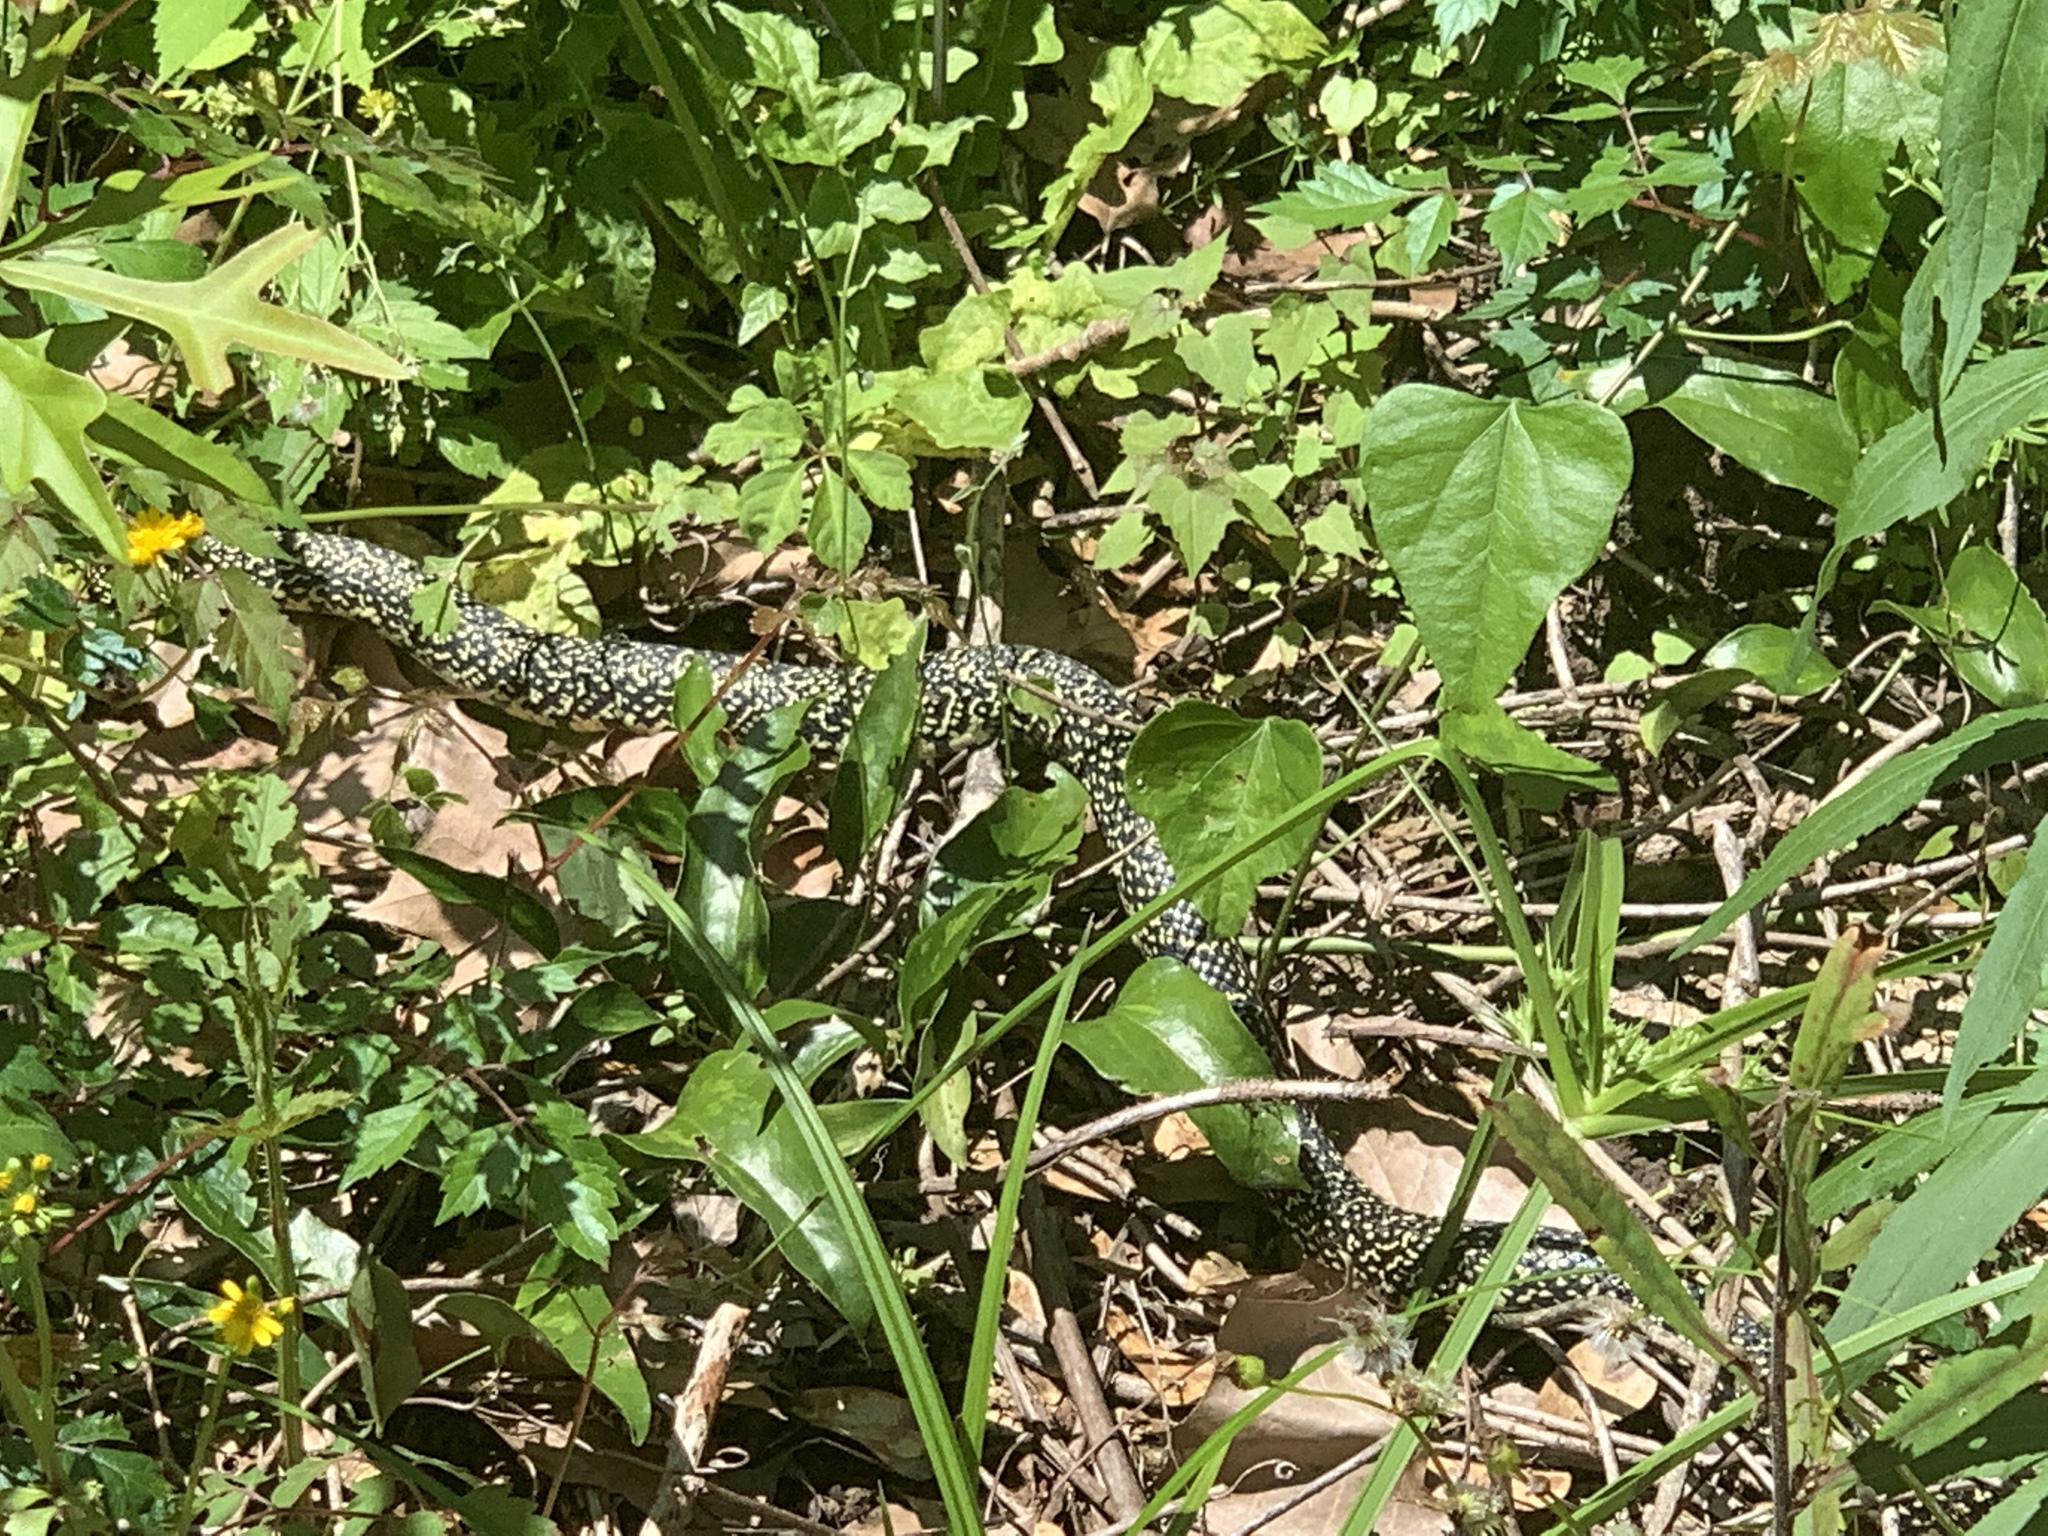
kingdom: Animalia
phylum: Chordata
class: Squamata
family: Colubridae
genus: Lampropeltis
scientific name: Lampropeltis holbrooki
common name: Speckled kingsnake
